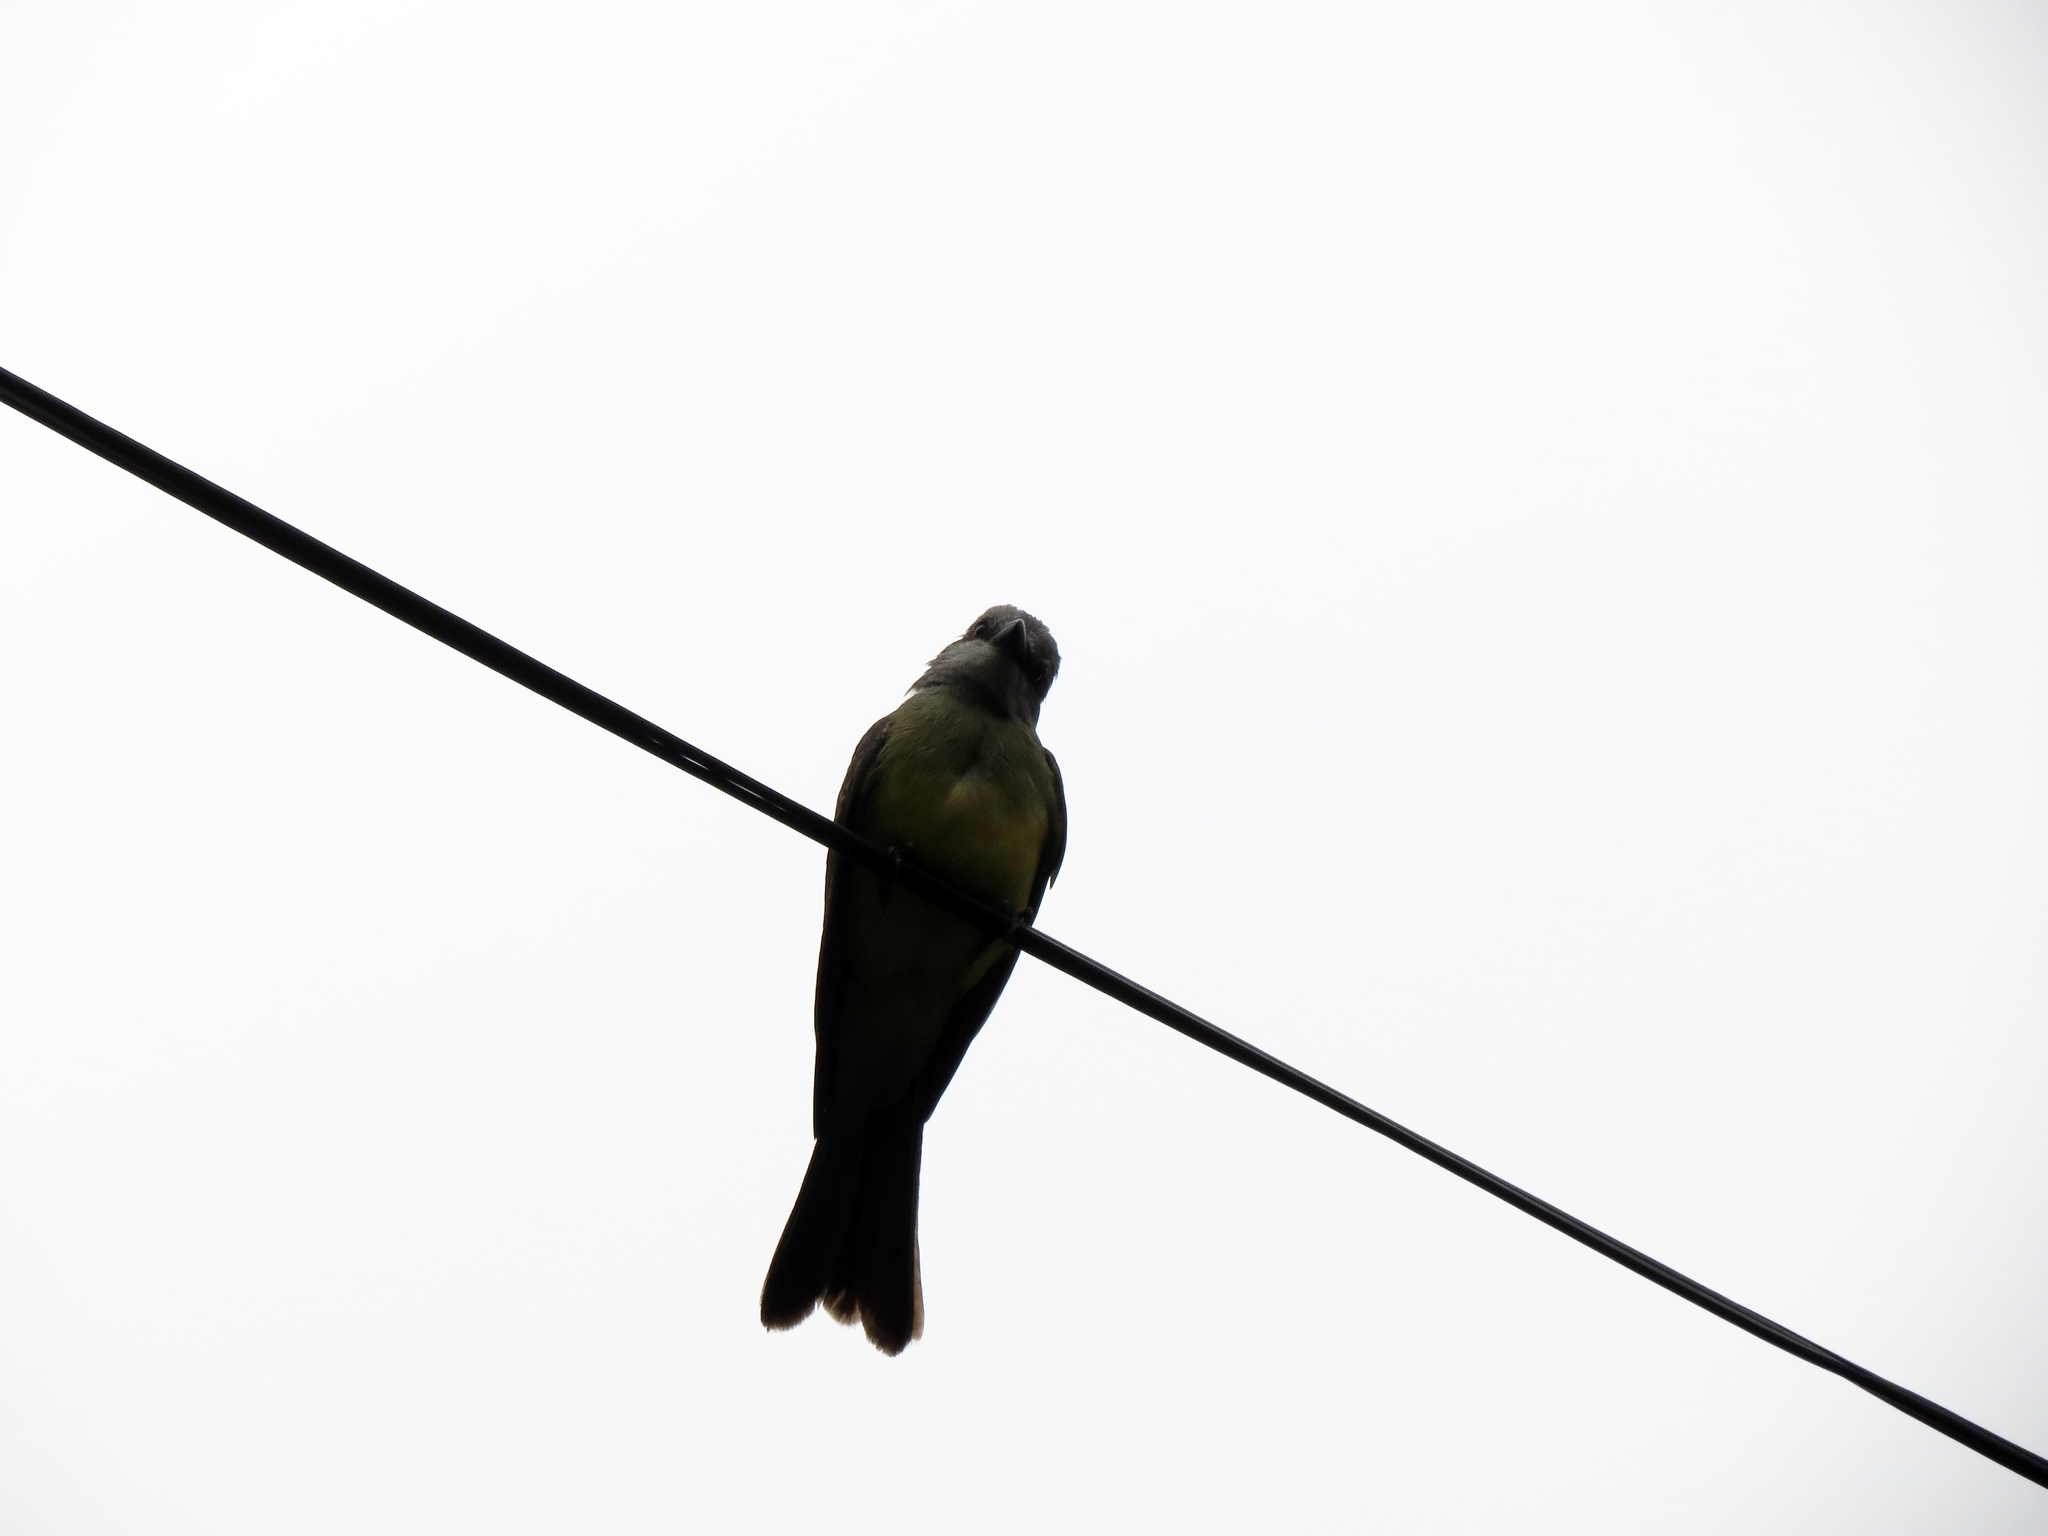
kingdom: Animalia
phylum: Chordata
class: Aves
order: Passeriformes
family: Tyrannidae
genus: Tyrannus
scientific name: Tyrannus melancholicus
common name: Tropical kingbird
